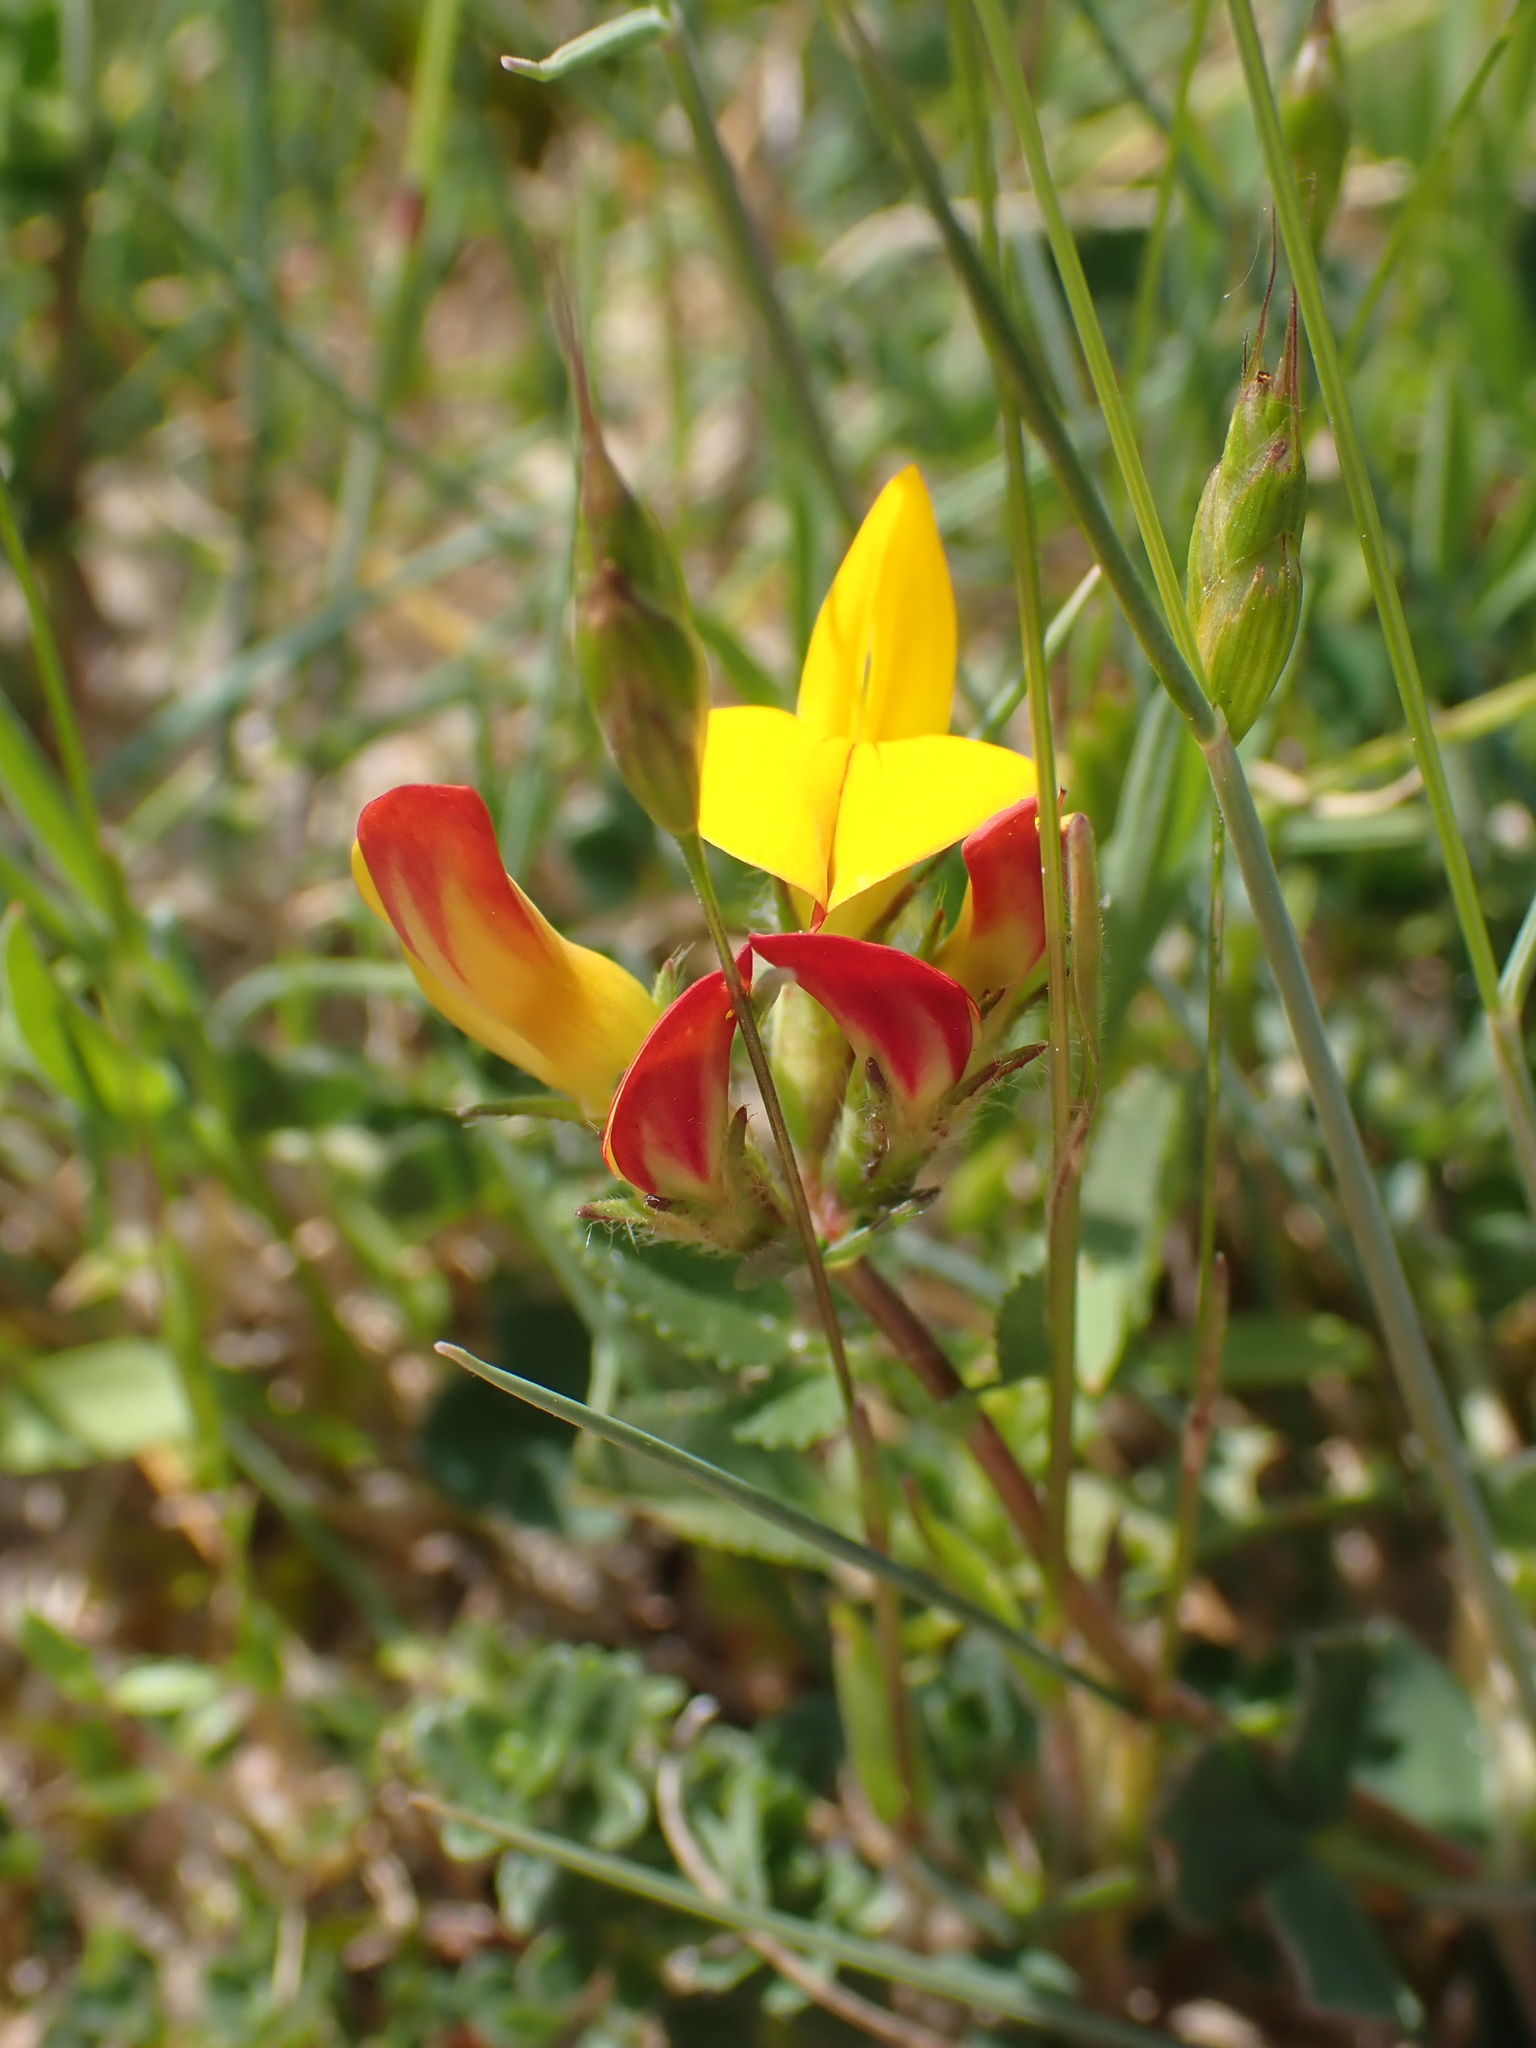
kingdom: Plantae
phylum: Tracheophyta
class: Magnoliopsida
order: Fabales
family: Fabaceae
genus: Lotus
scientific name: Lotus corniculatus
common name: Common bird's-foot-trefoil
